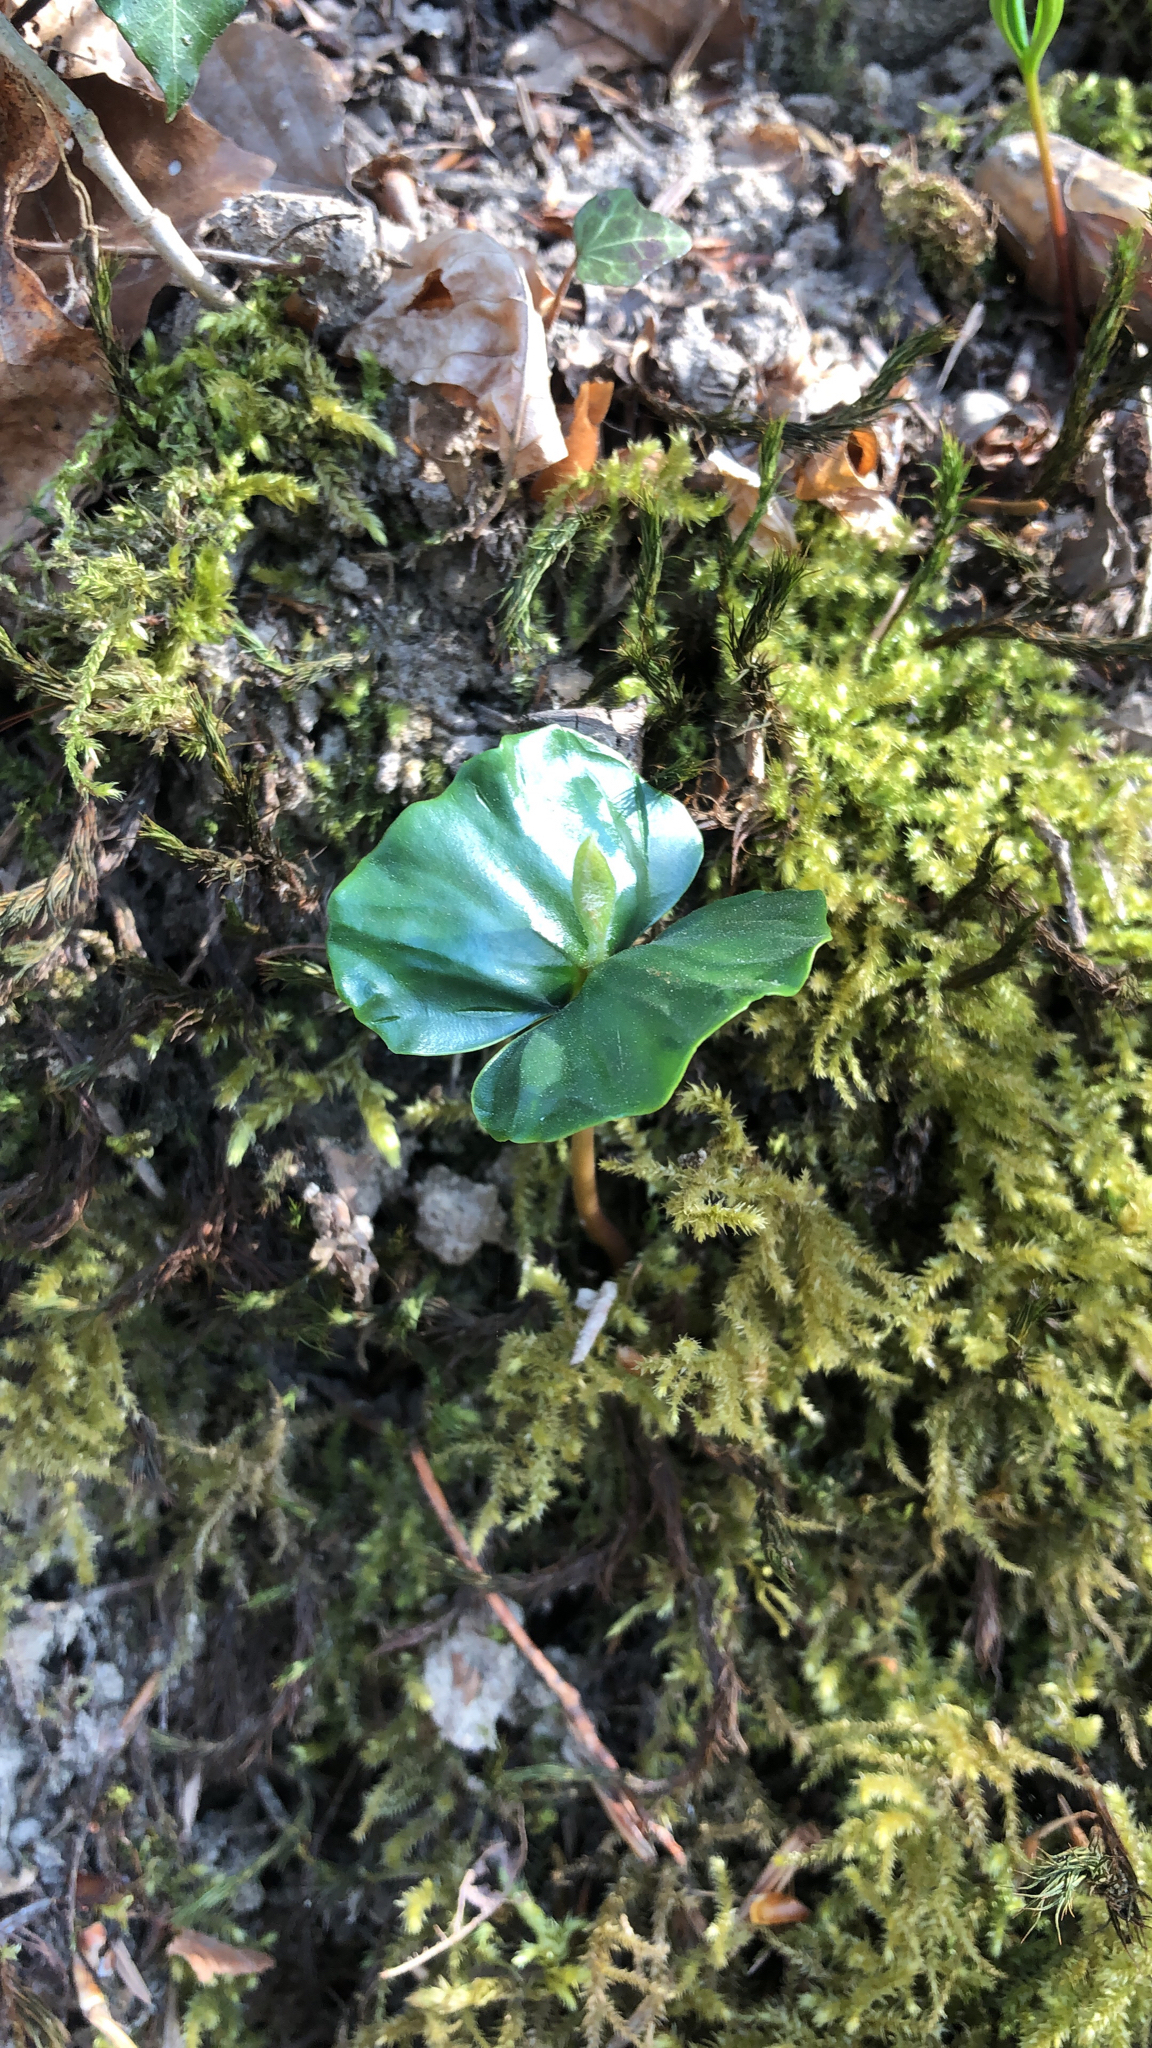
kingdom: Plantae
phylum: Tracheophyta
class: Magnoliopsida
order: Fagales
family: Fagaceae
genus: Fagus
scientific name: Fagus sylvatica
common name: Beech
